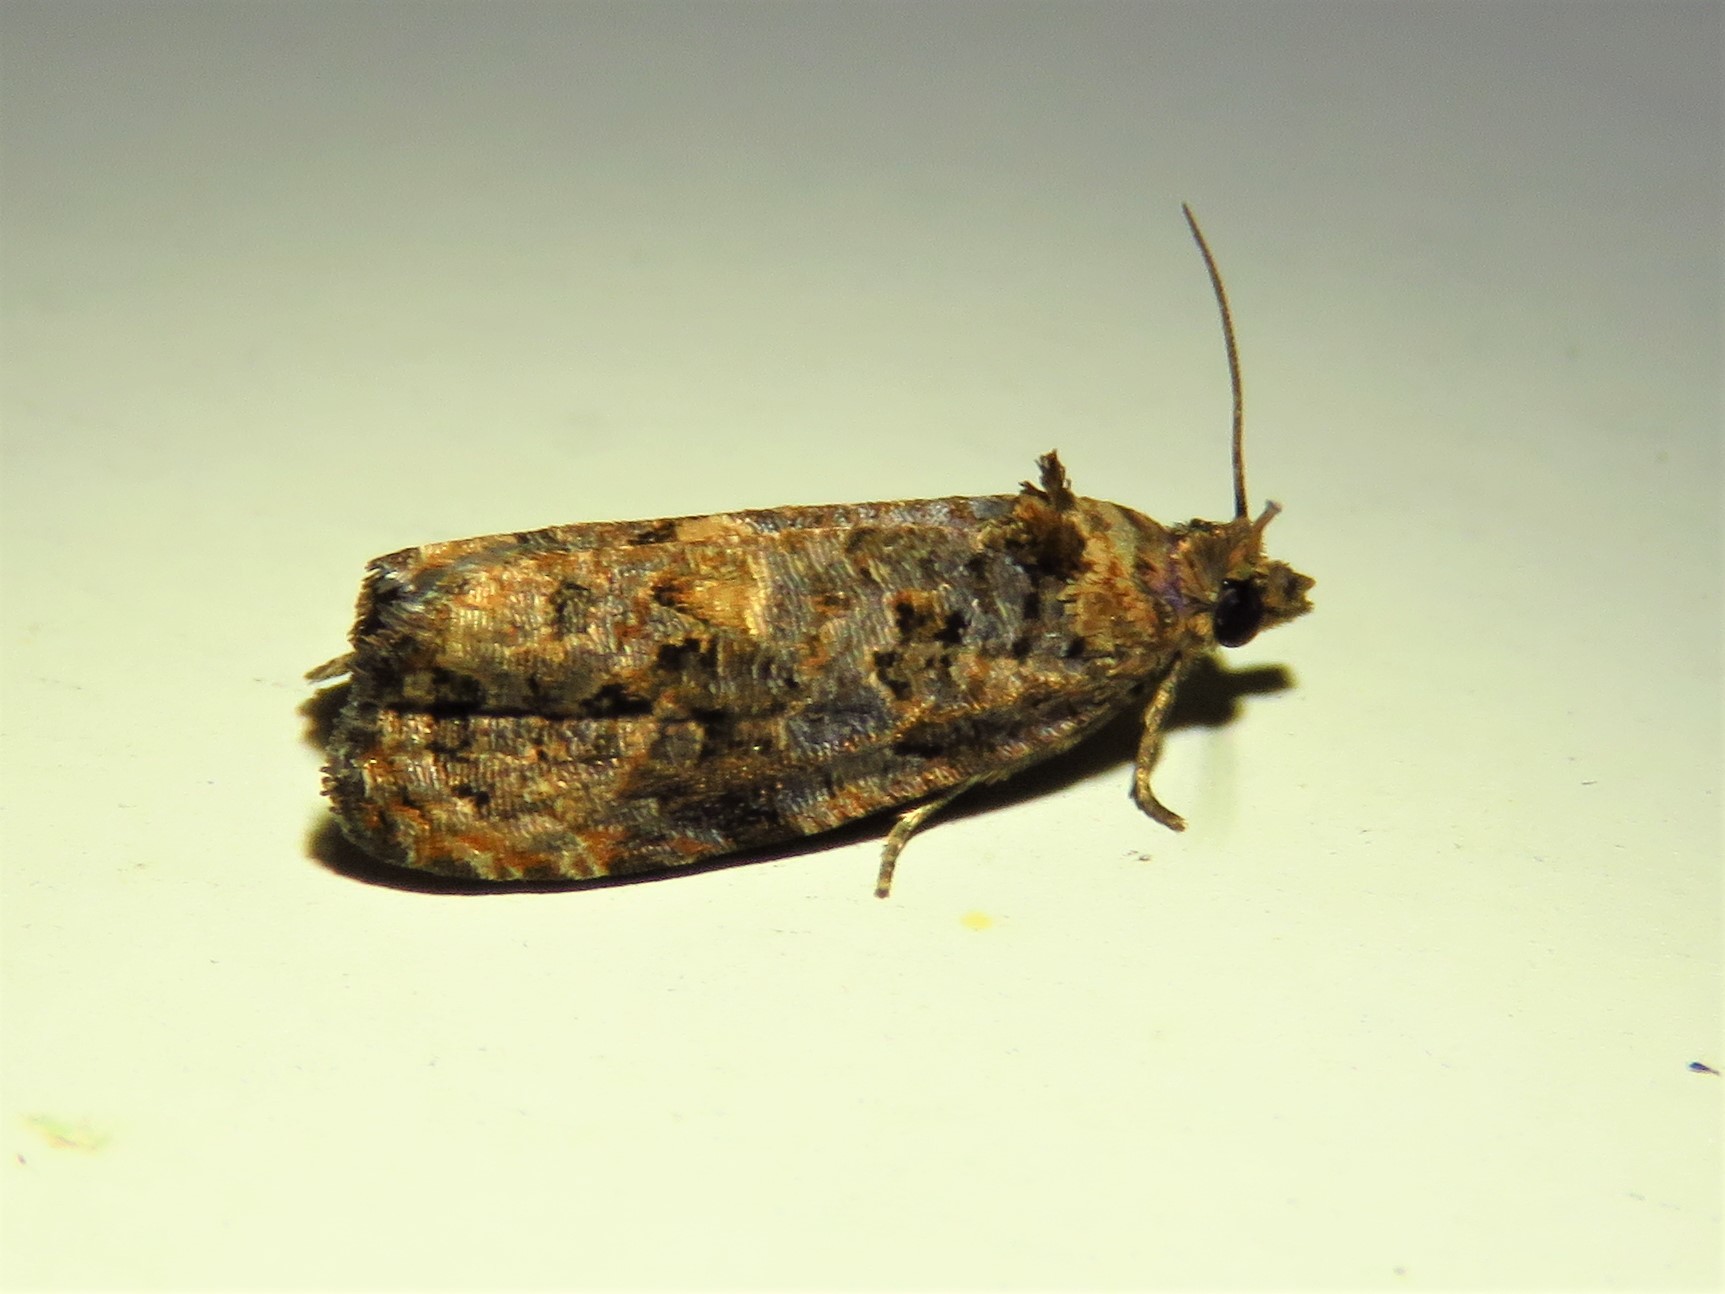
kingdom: Animalia
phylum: Arthropoda
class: Insecta
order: Lepidoptera
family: Tortricidae
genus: Endothenia
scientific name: Endothenia hebesana
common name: Verbena bud moth
